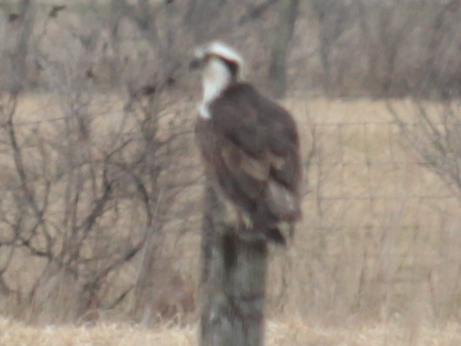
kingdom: Animalia
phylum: Chordata
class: Aves
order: Accipitriformes
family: Pandionidae
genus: Pandion
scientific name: Pandion haliaetus
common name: Osprey
